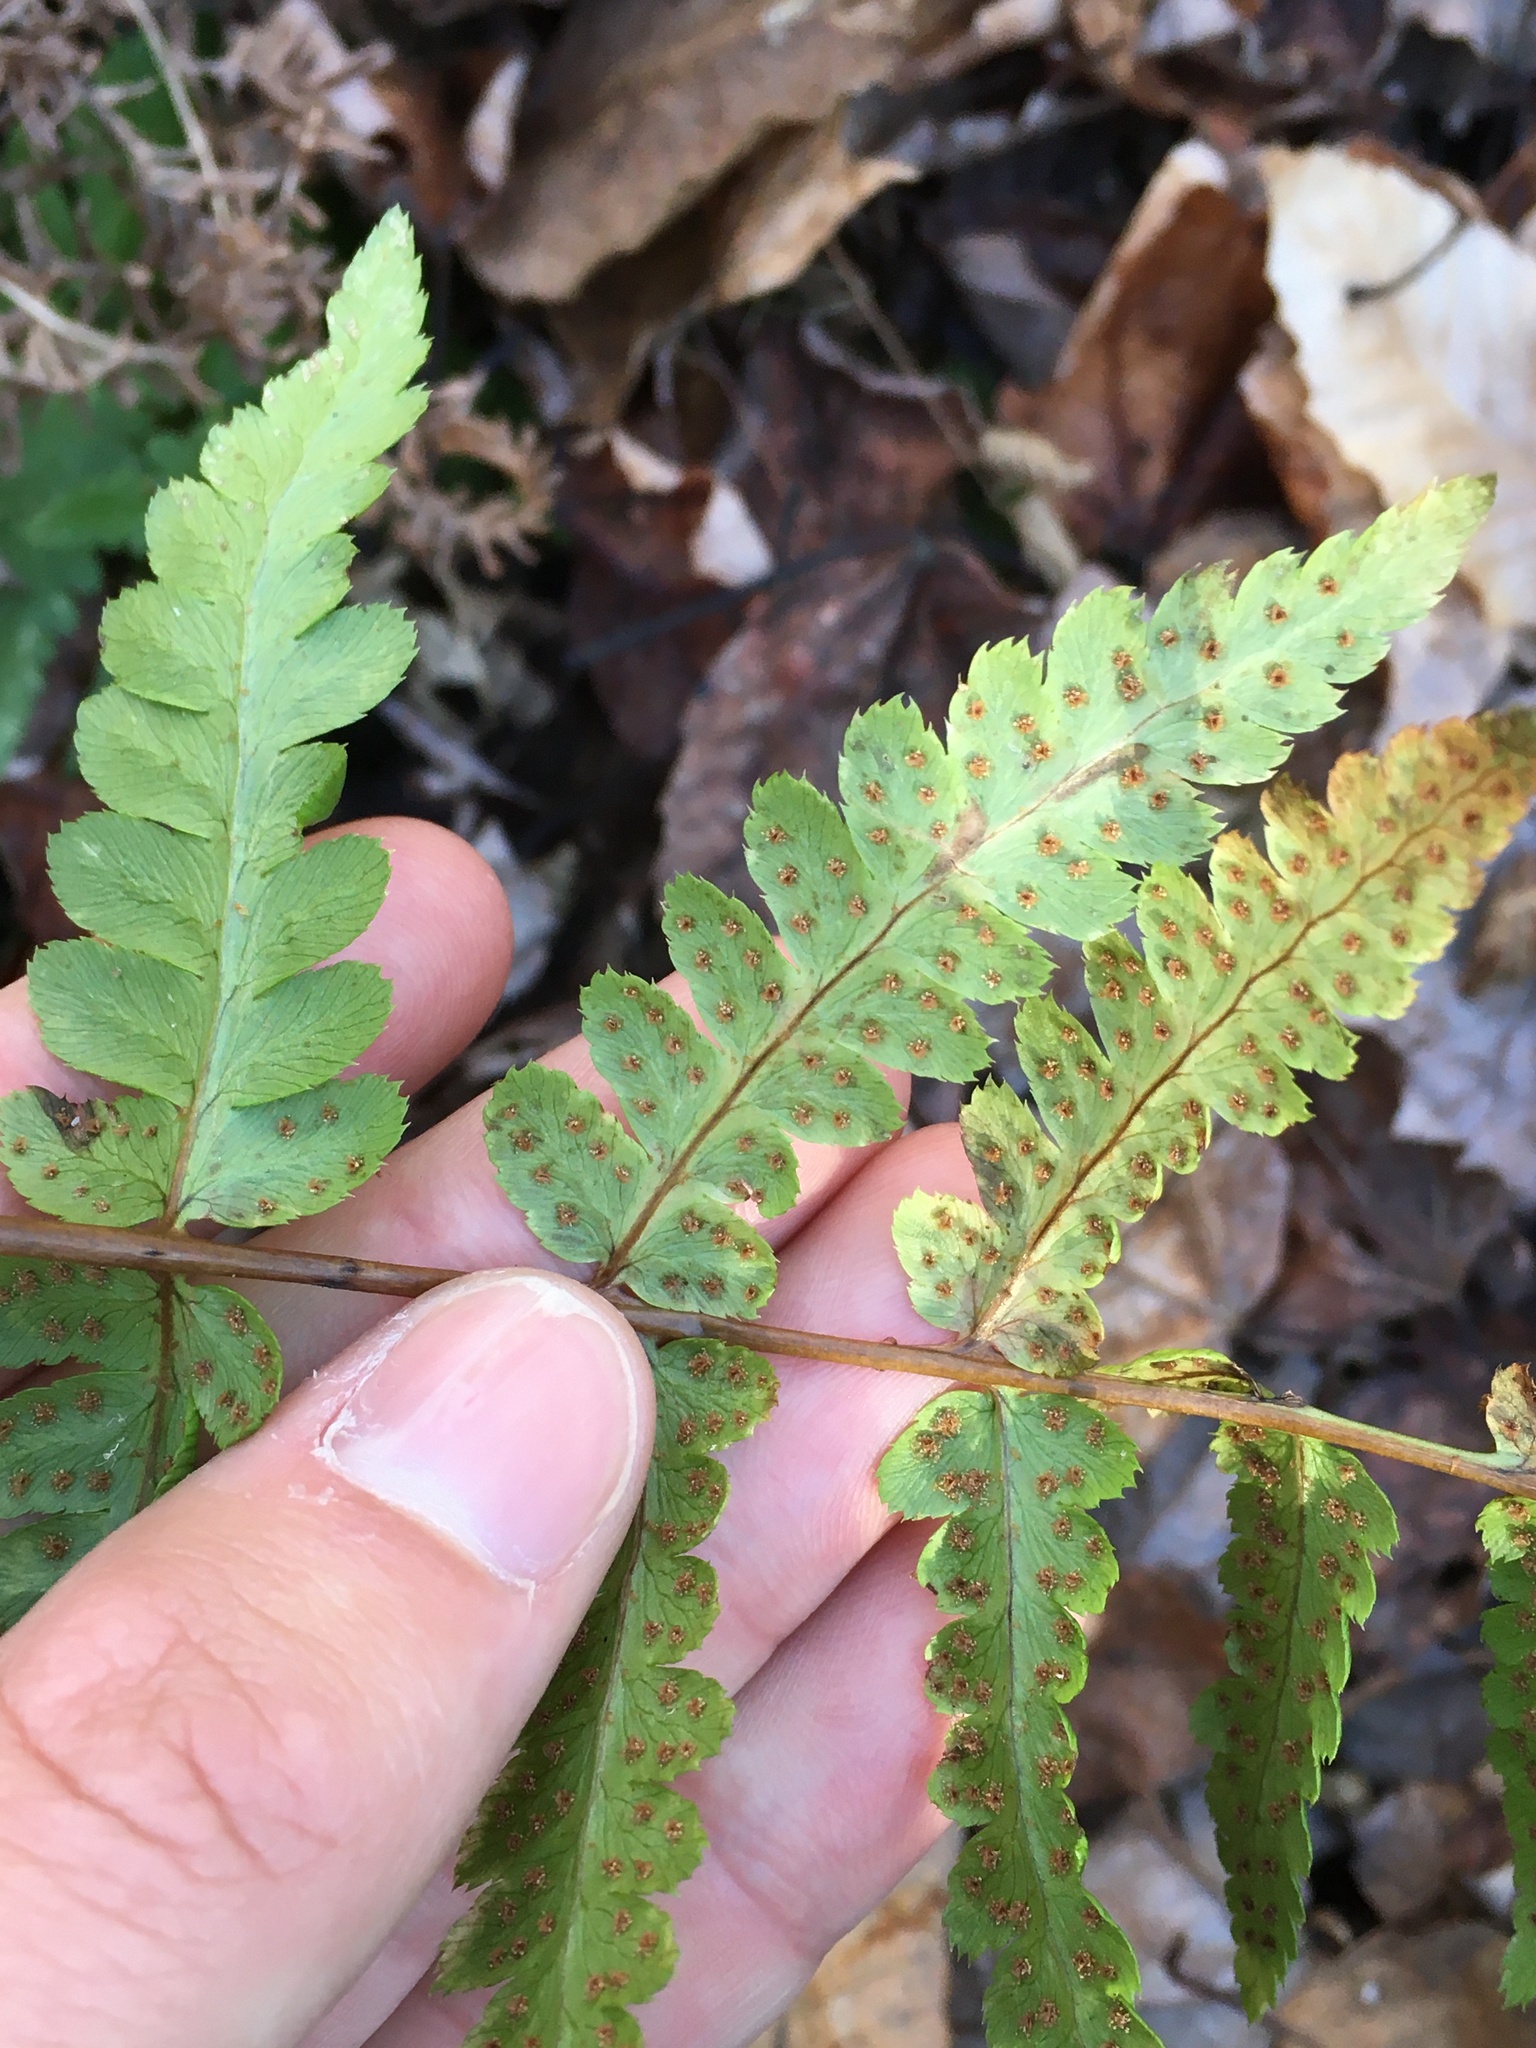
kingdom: Plantae
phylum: Tracheophyta
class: Polypodiopsida
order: Polypodiales
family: Dryopteridaceae
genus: Dryopteris
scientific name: Dryopteris cristata
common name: Crested wood fern
